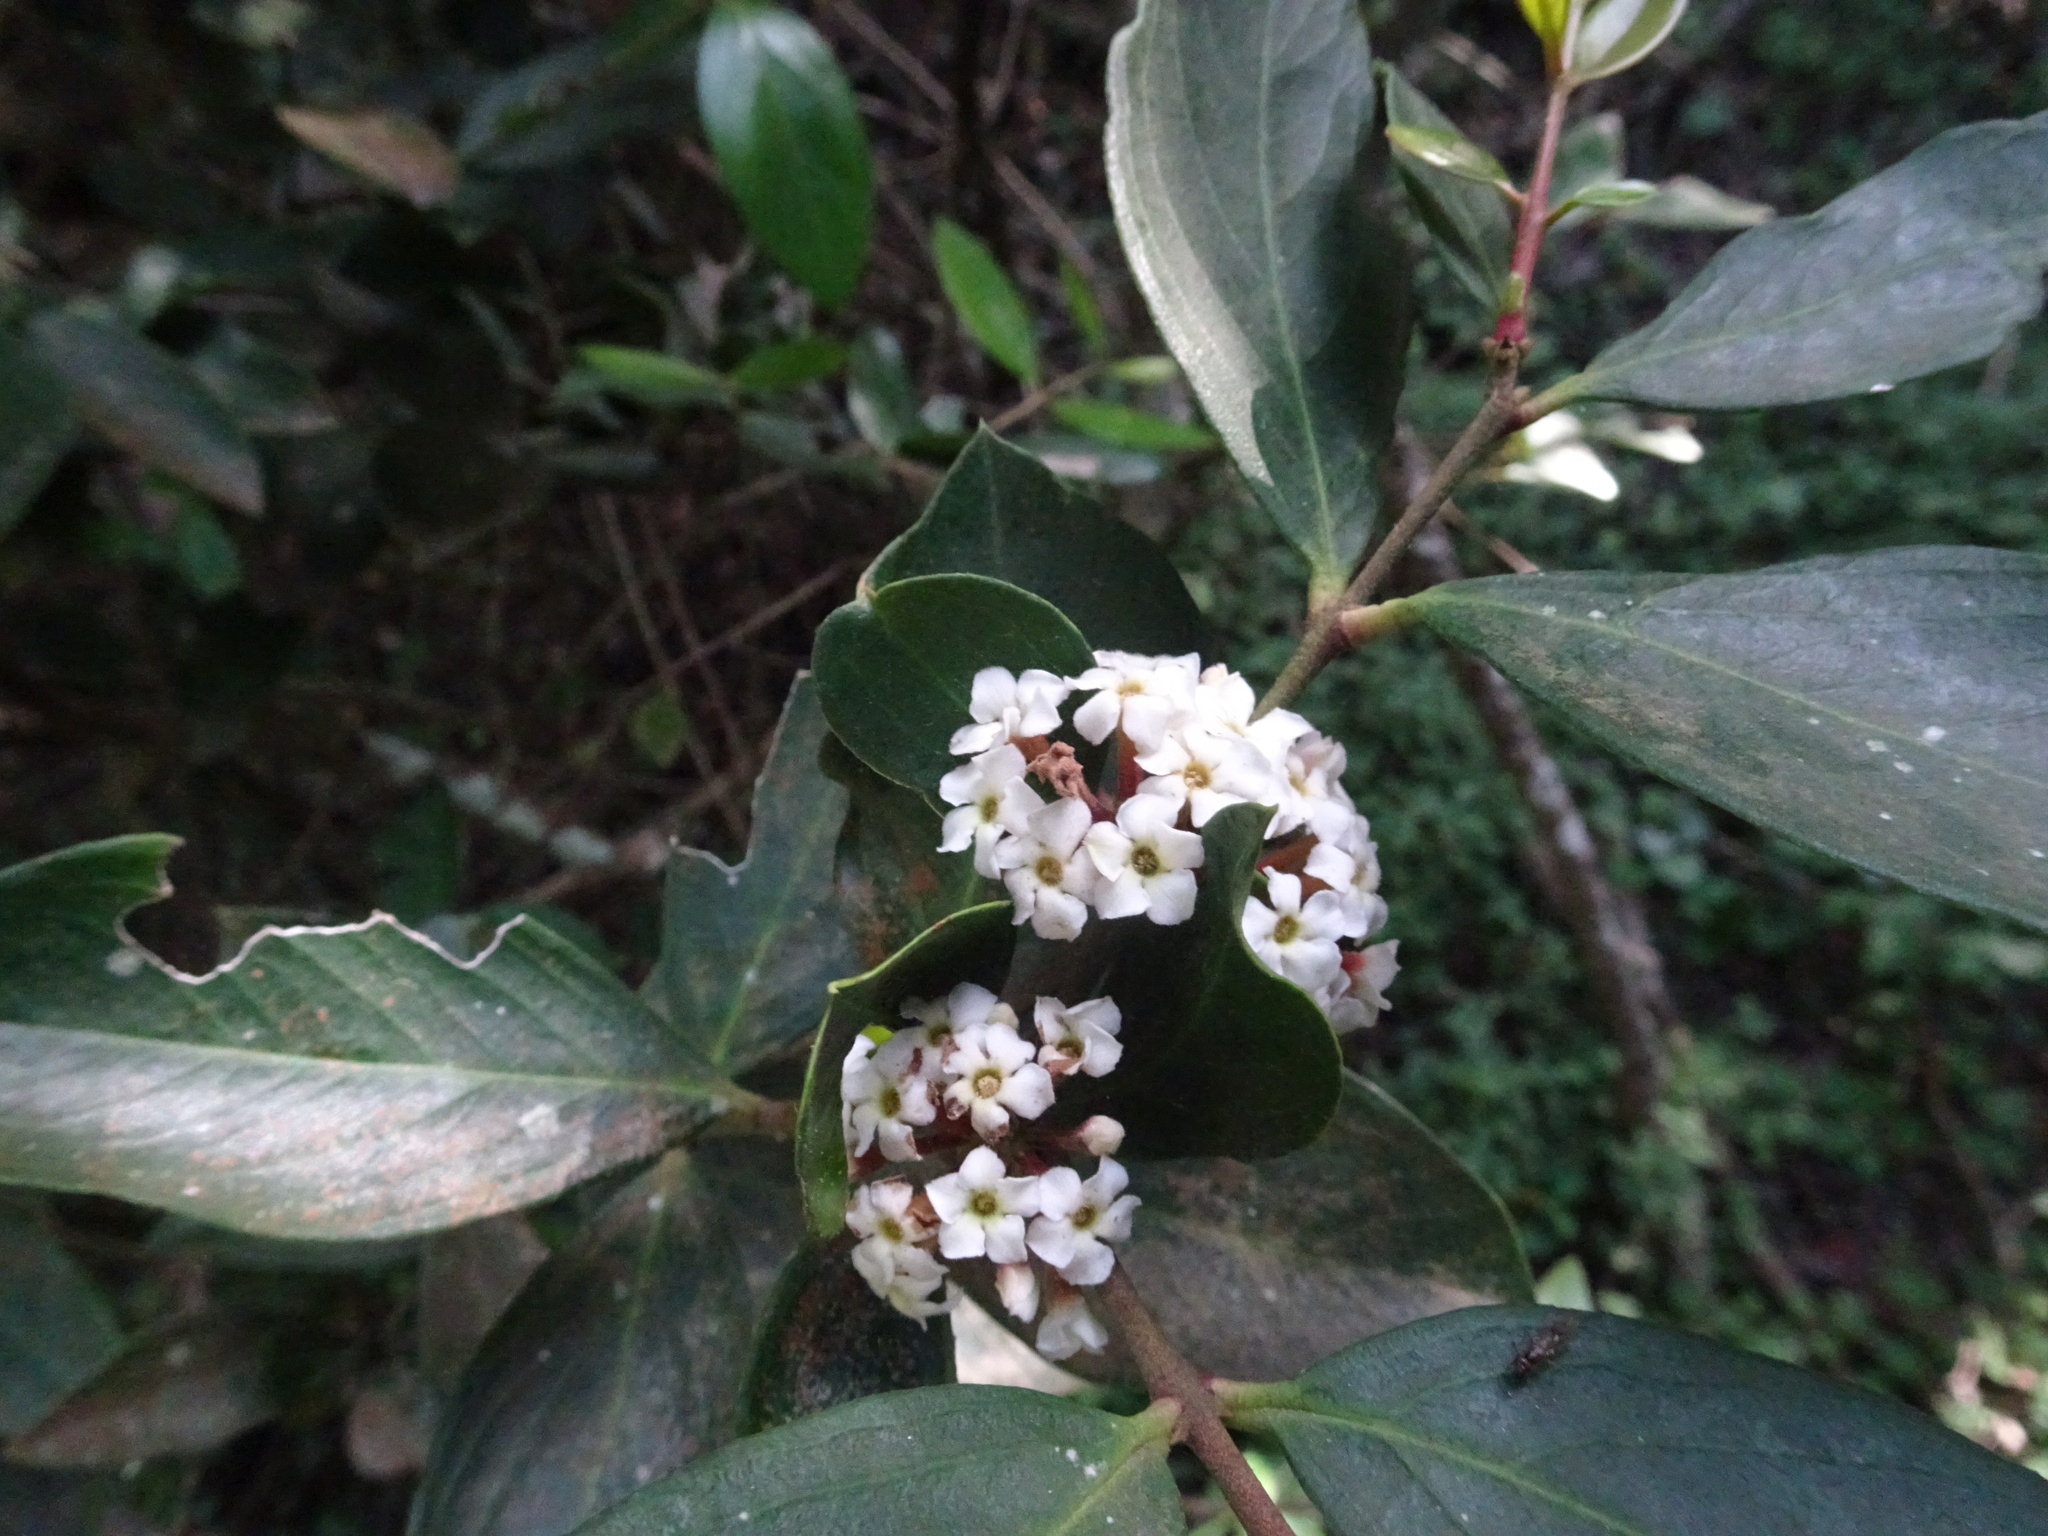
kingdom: Plantae
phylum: Tracheophyta
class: Magnoliopsida
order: Gentianales
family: Apocynaceae
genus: Acokanthera
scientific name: Acokanthera oppositifolia
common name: Bushman's-poison
